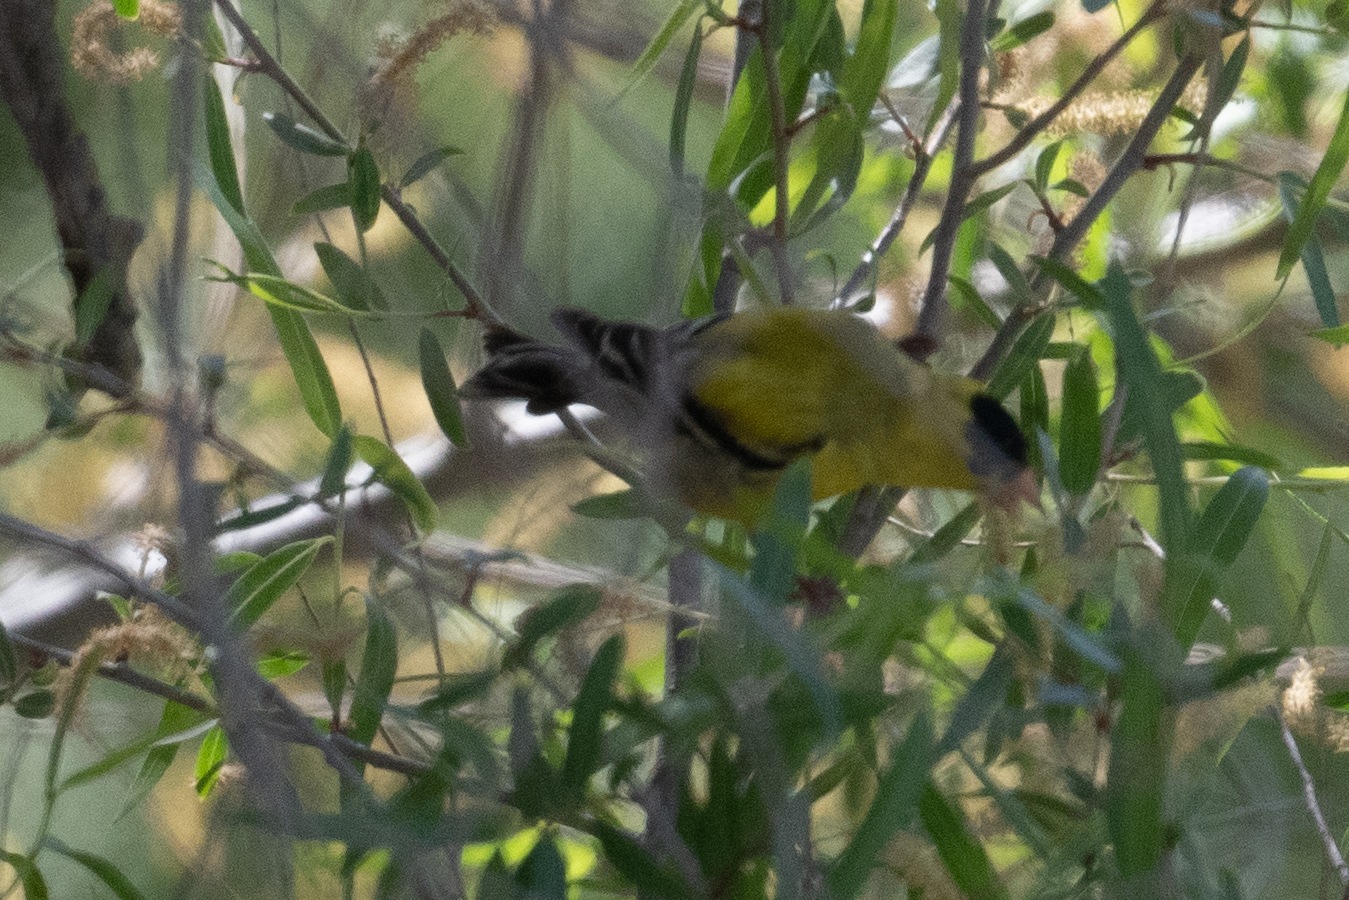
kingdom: Animalia
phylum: Chordata
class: Aves
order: Passeriformes
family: Fringillidae
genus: Spinus
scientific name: Spinus tristis
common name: American goldfinch
